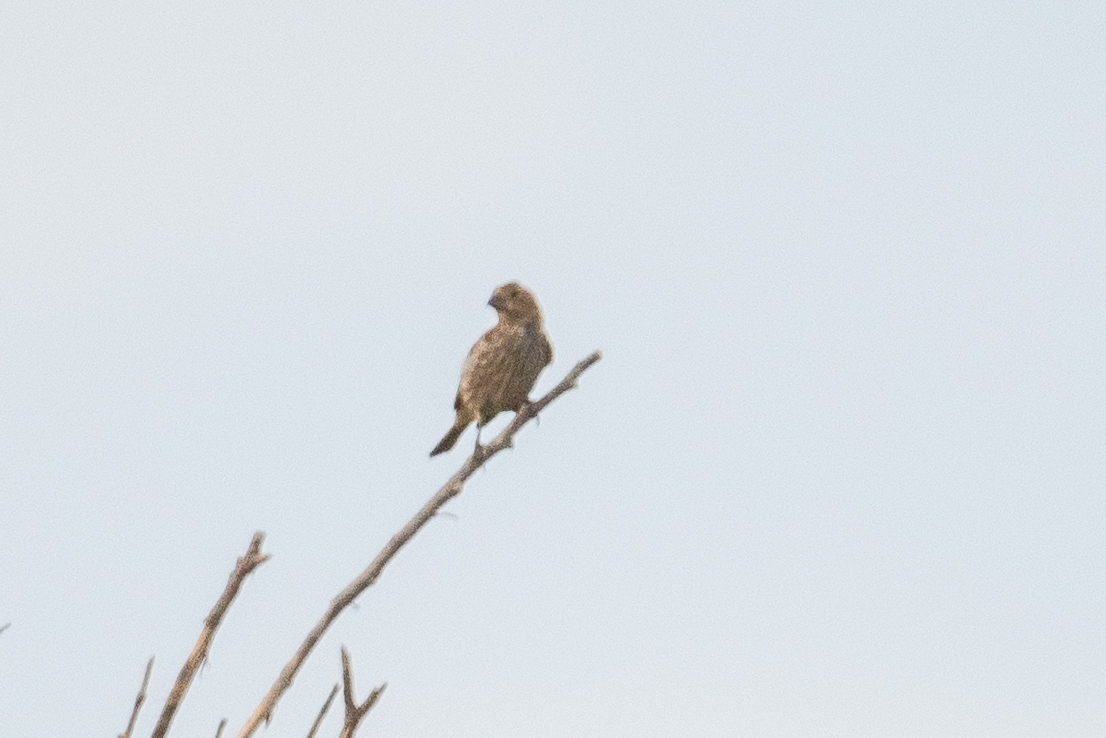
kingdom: Animalia
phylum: Chordata
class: Aves
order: Passeriformes
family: Fringillidae
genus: Haemorhous
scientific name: Haemorhous mexicanus
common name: House finch
